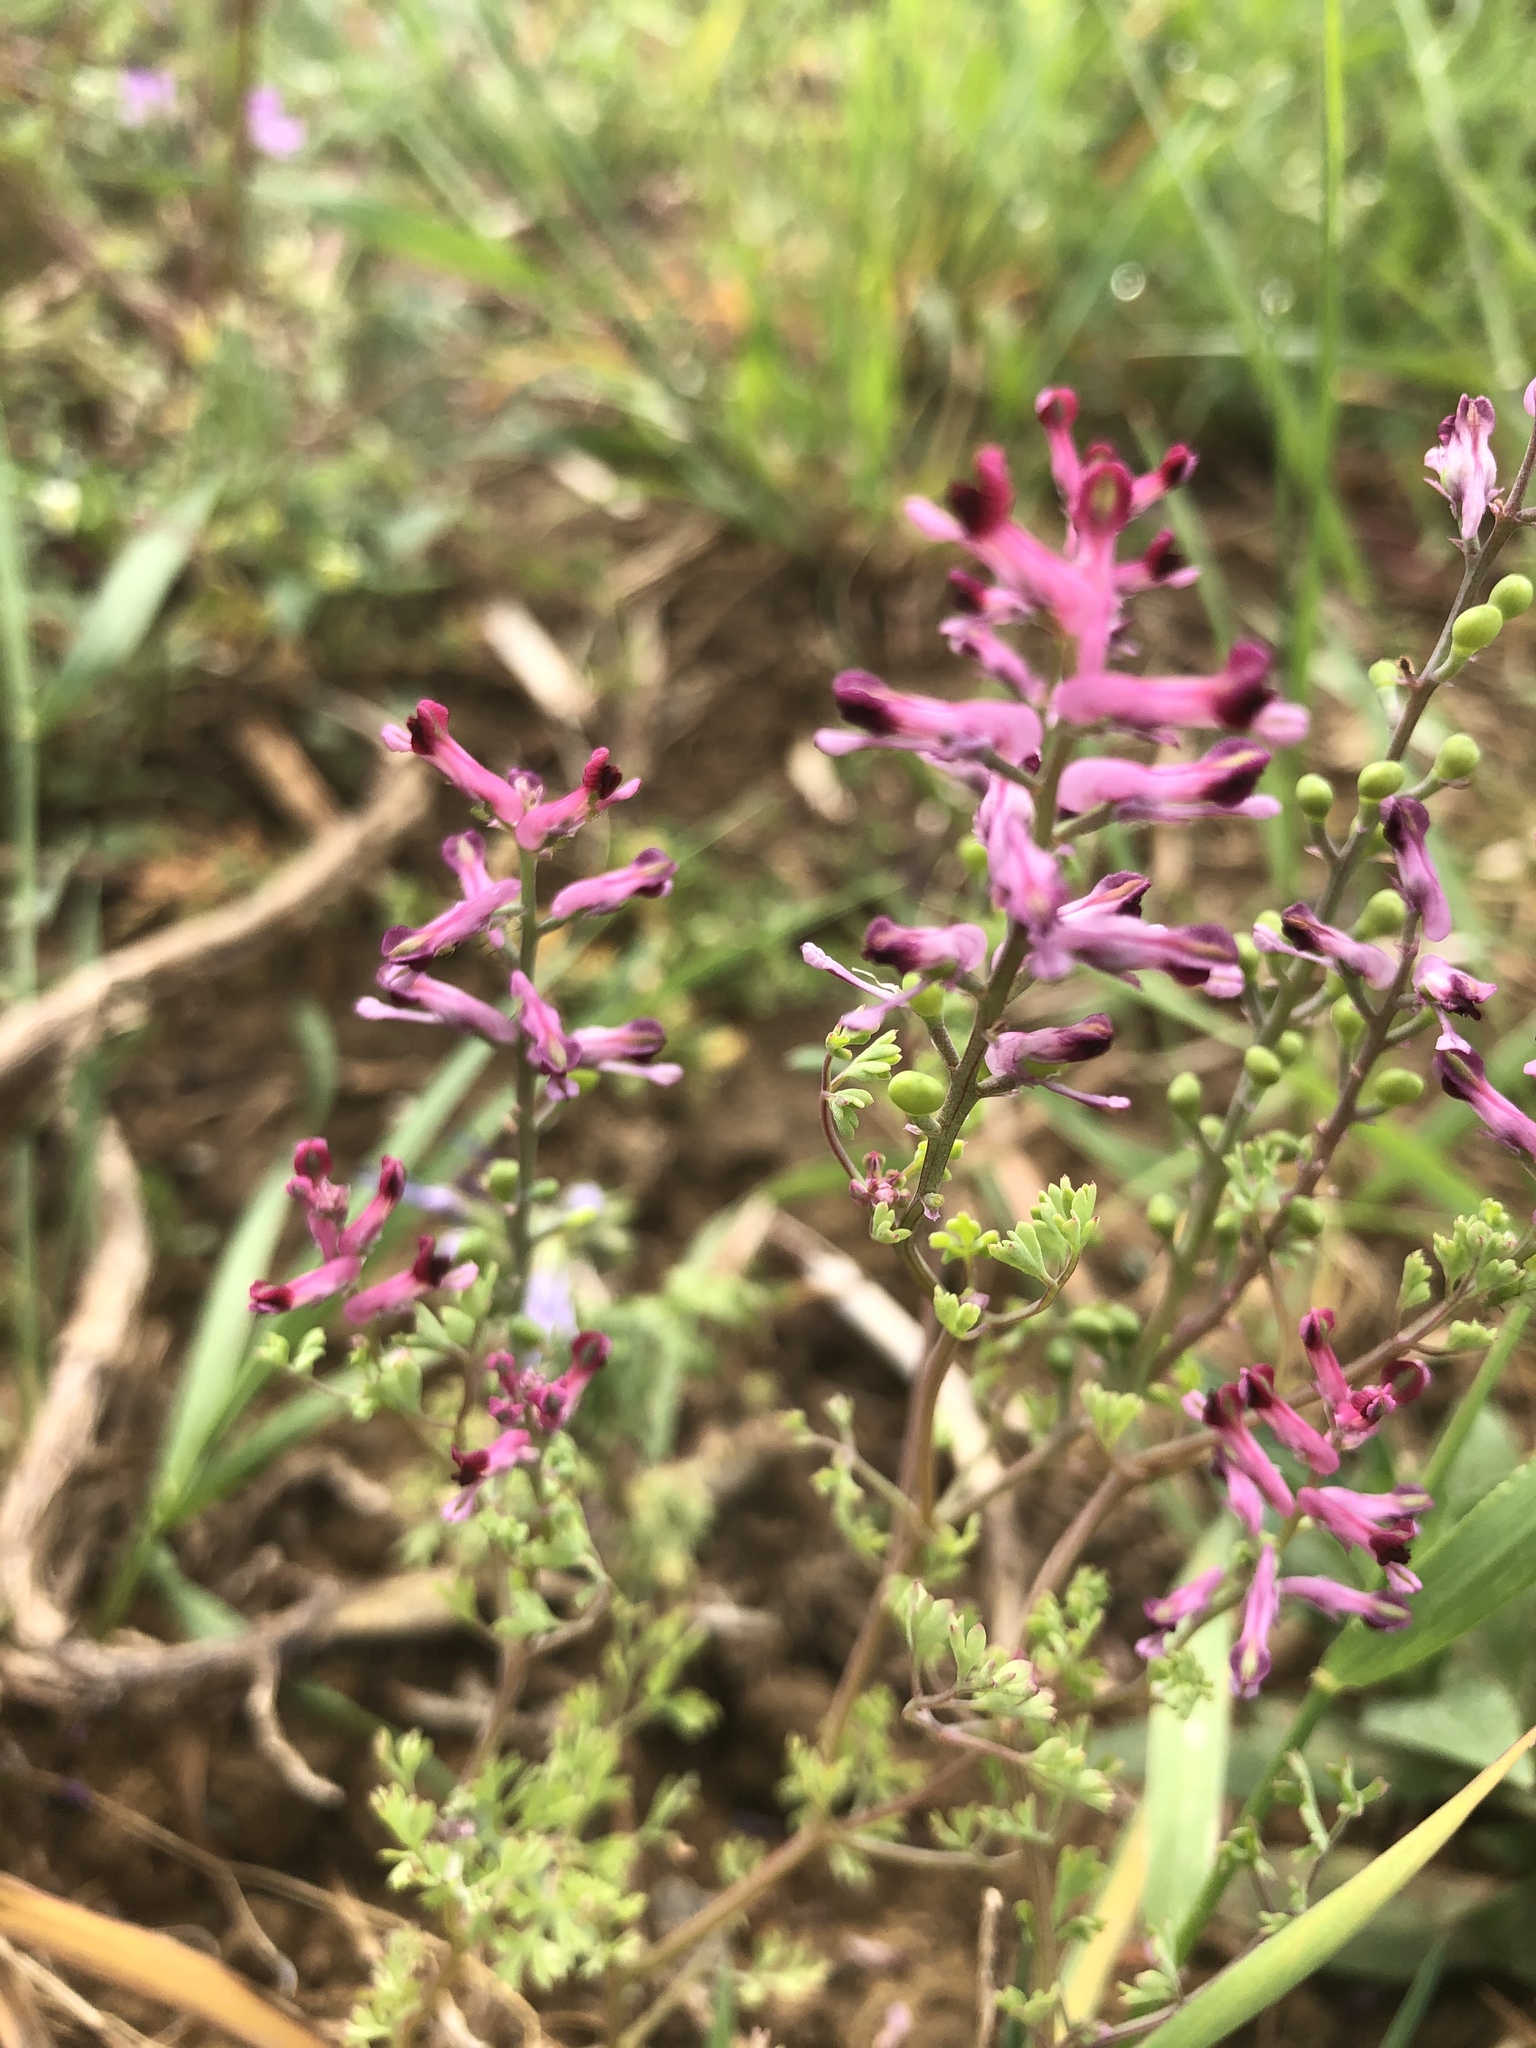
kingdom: Plantae
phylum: Tracheophyta
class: Magnoliopsida
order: Ranunculales
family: Papaveraceae
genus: Fumaria
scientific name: Fumaria officinalis
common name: Common fumitory
